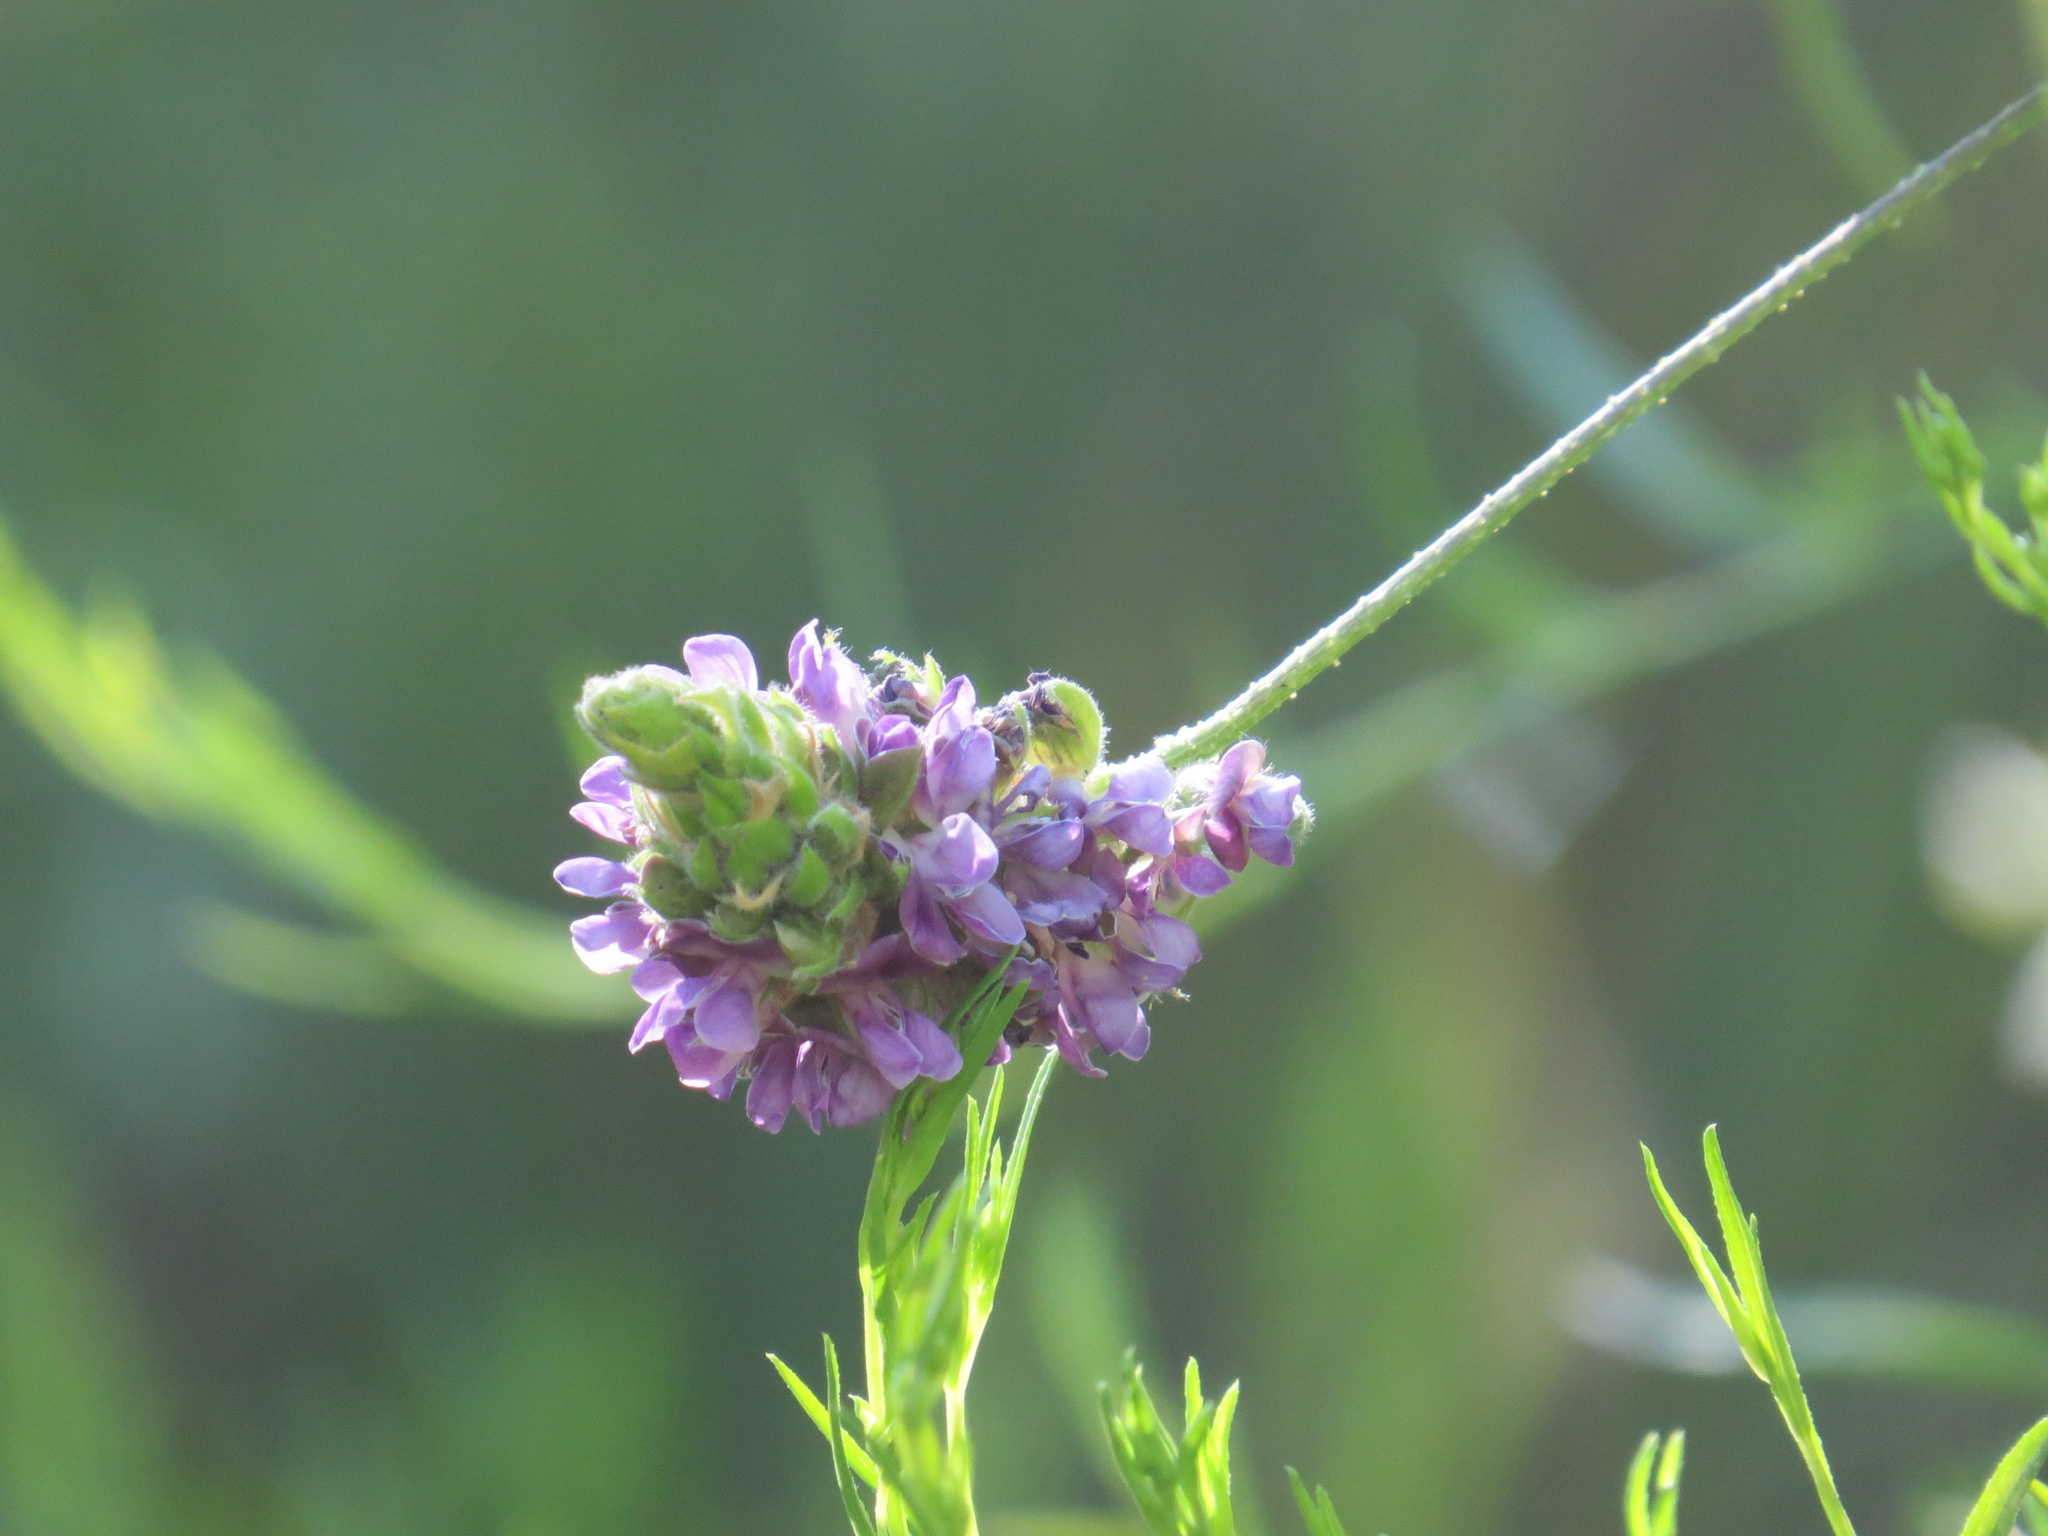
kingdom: Plantae
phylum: Tracheophyta
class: Magnoliopsida
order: Fabales
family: Fabaceae
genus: Hoita
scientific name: Hoita macrostachya
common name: Leatherroot
